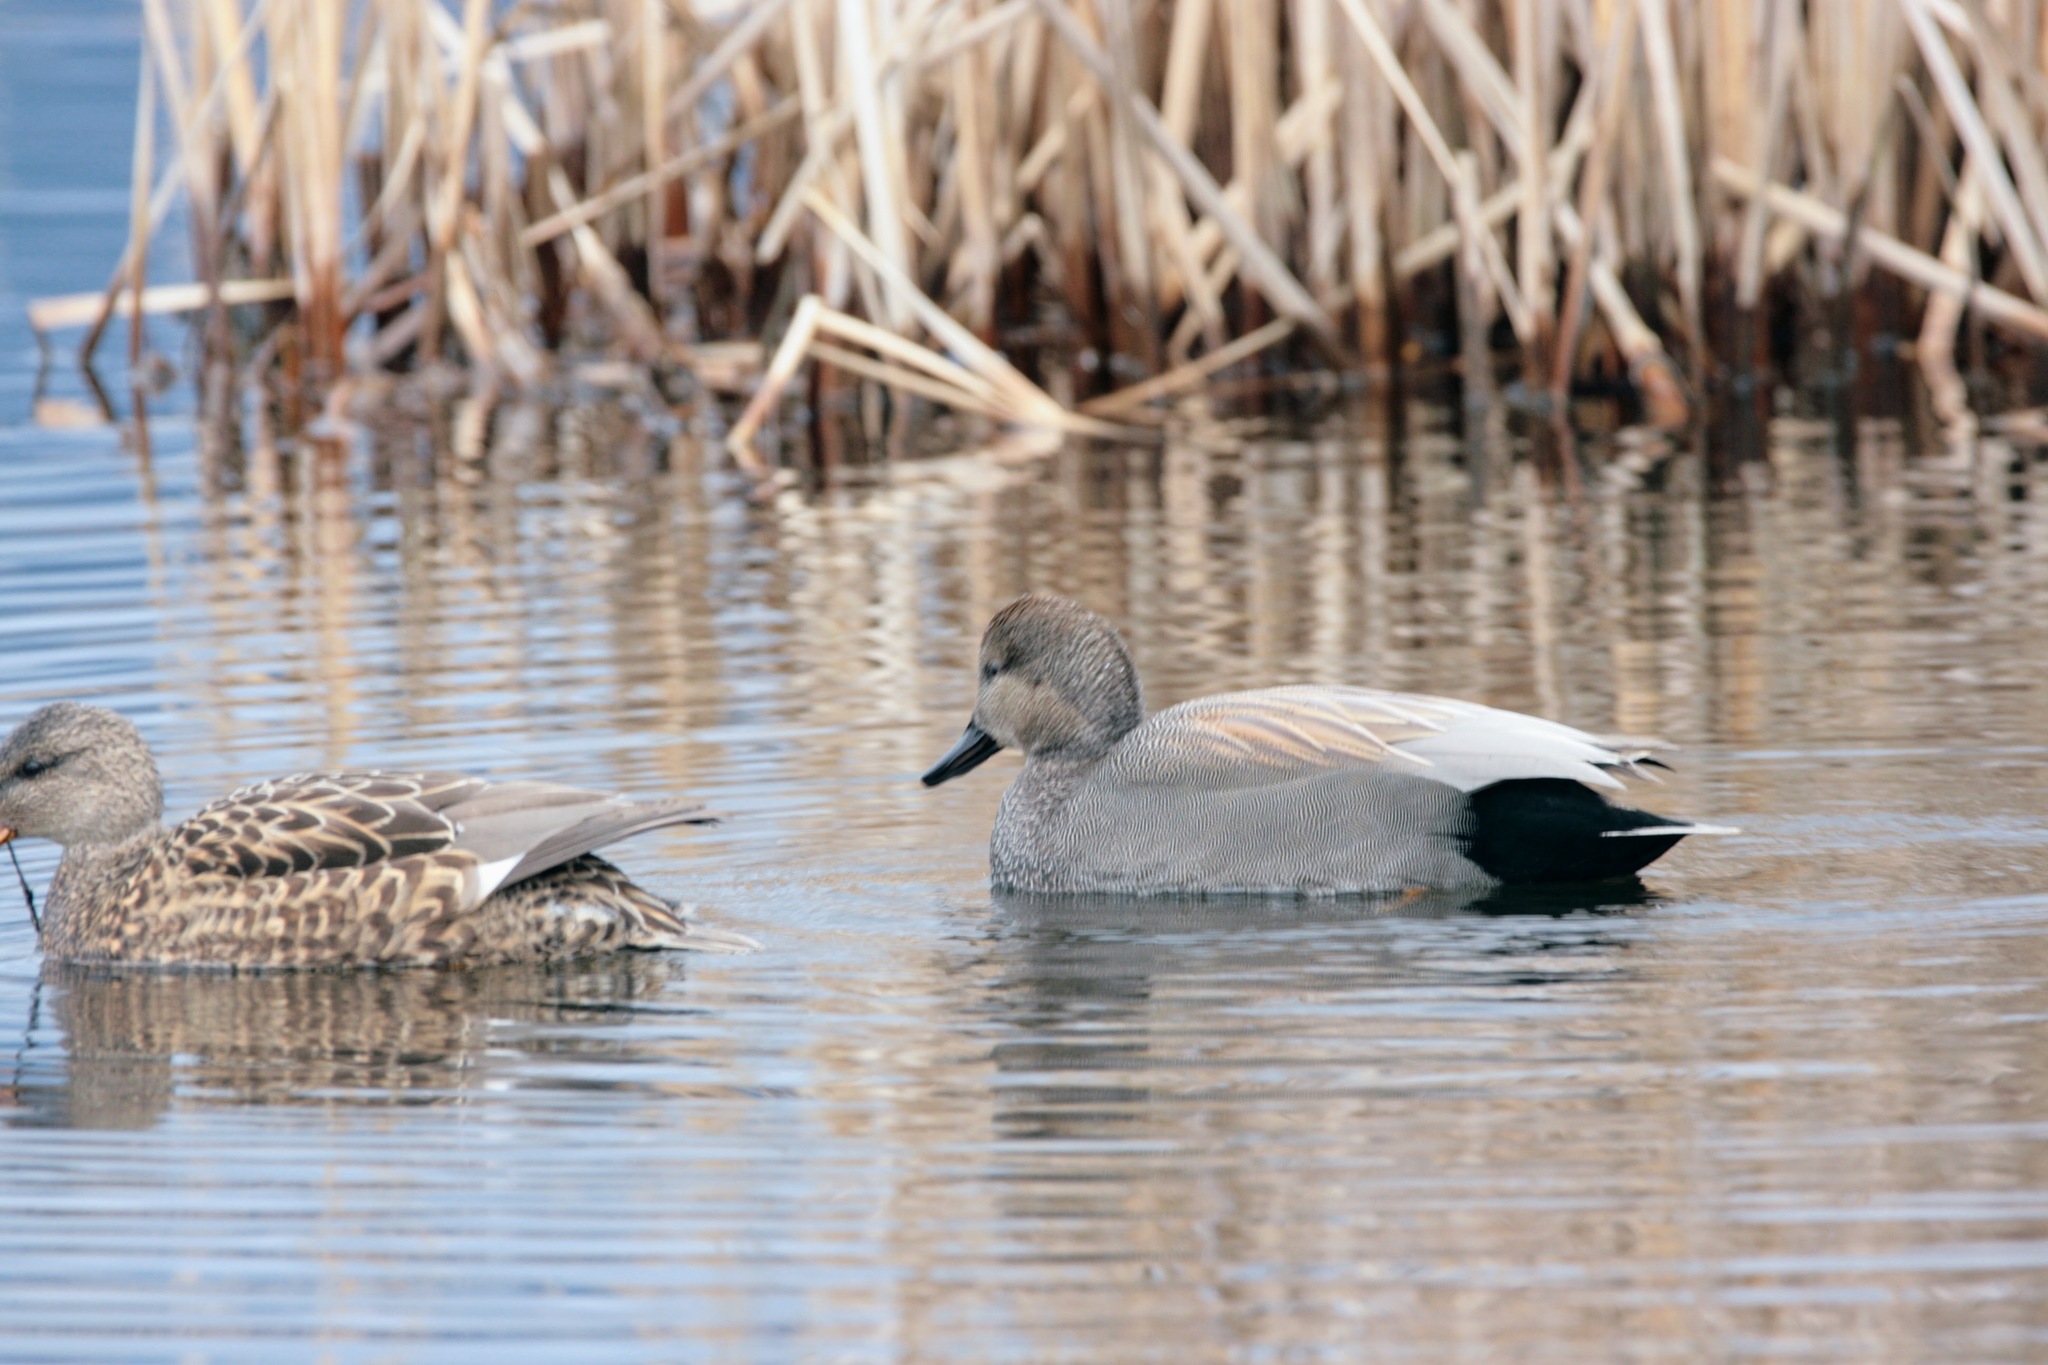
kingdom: Animalia
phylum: Chordata
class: Aves
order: Anseriformes
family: Anatidae
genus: Mareca
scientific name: Mareca strepera
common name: Gadwall
